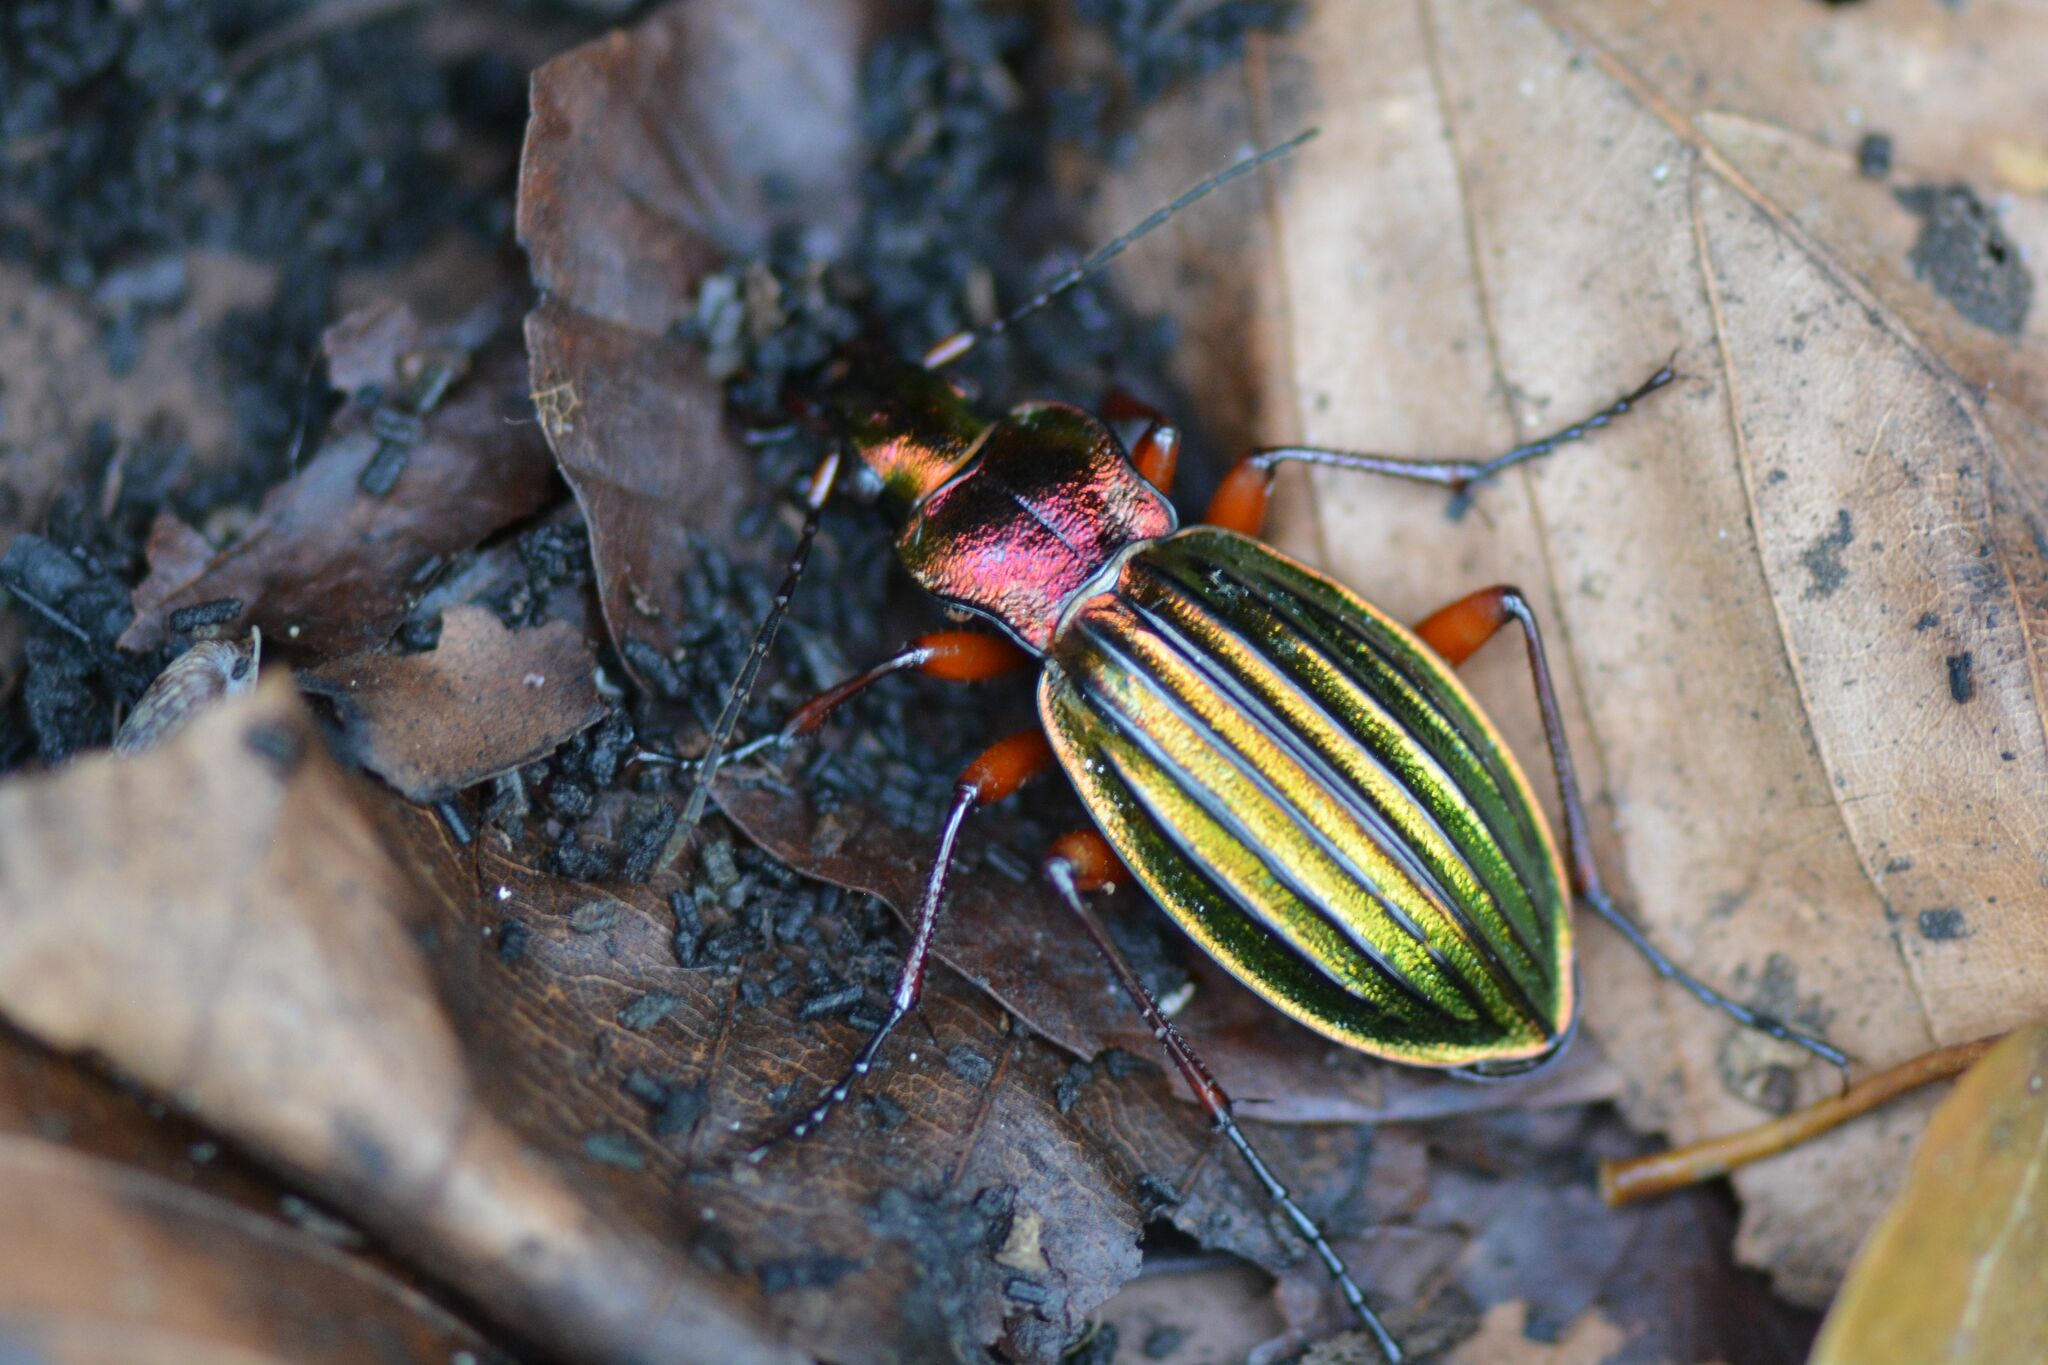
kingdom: Animalia
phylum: Arthropoda
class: Insecta
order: Coleoptera
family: Carabidae
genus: Carabus
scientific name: Carabus auronitens
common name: Carabus auronitens
